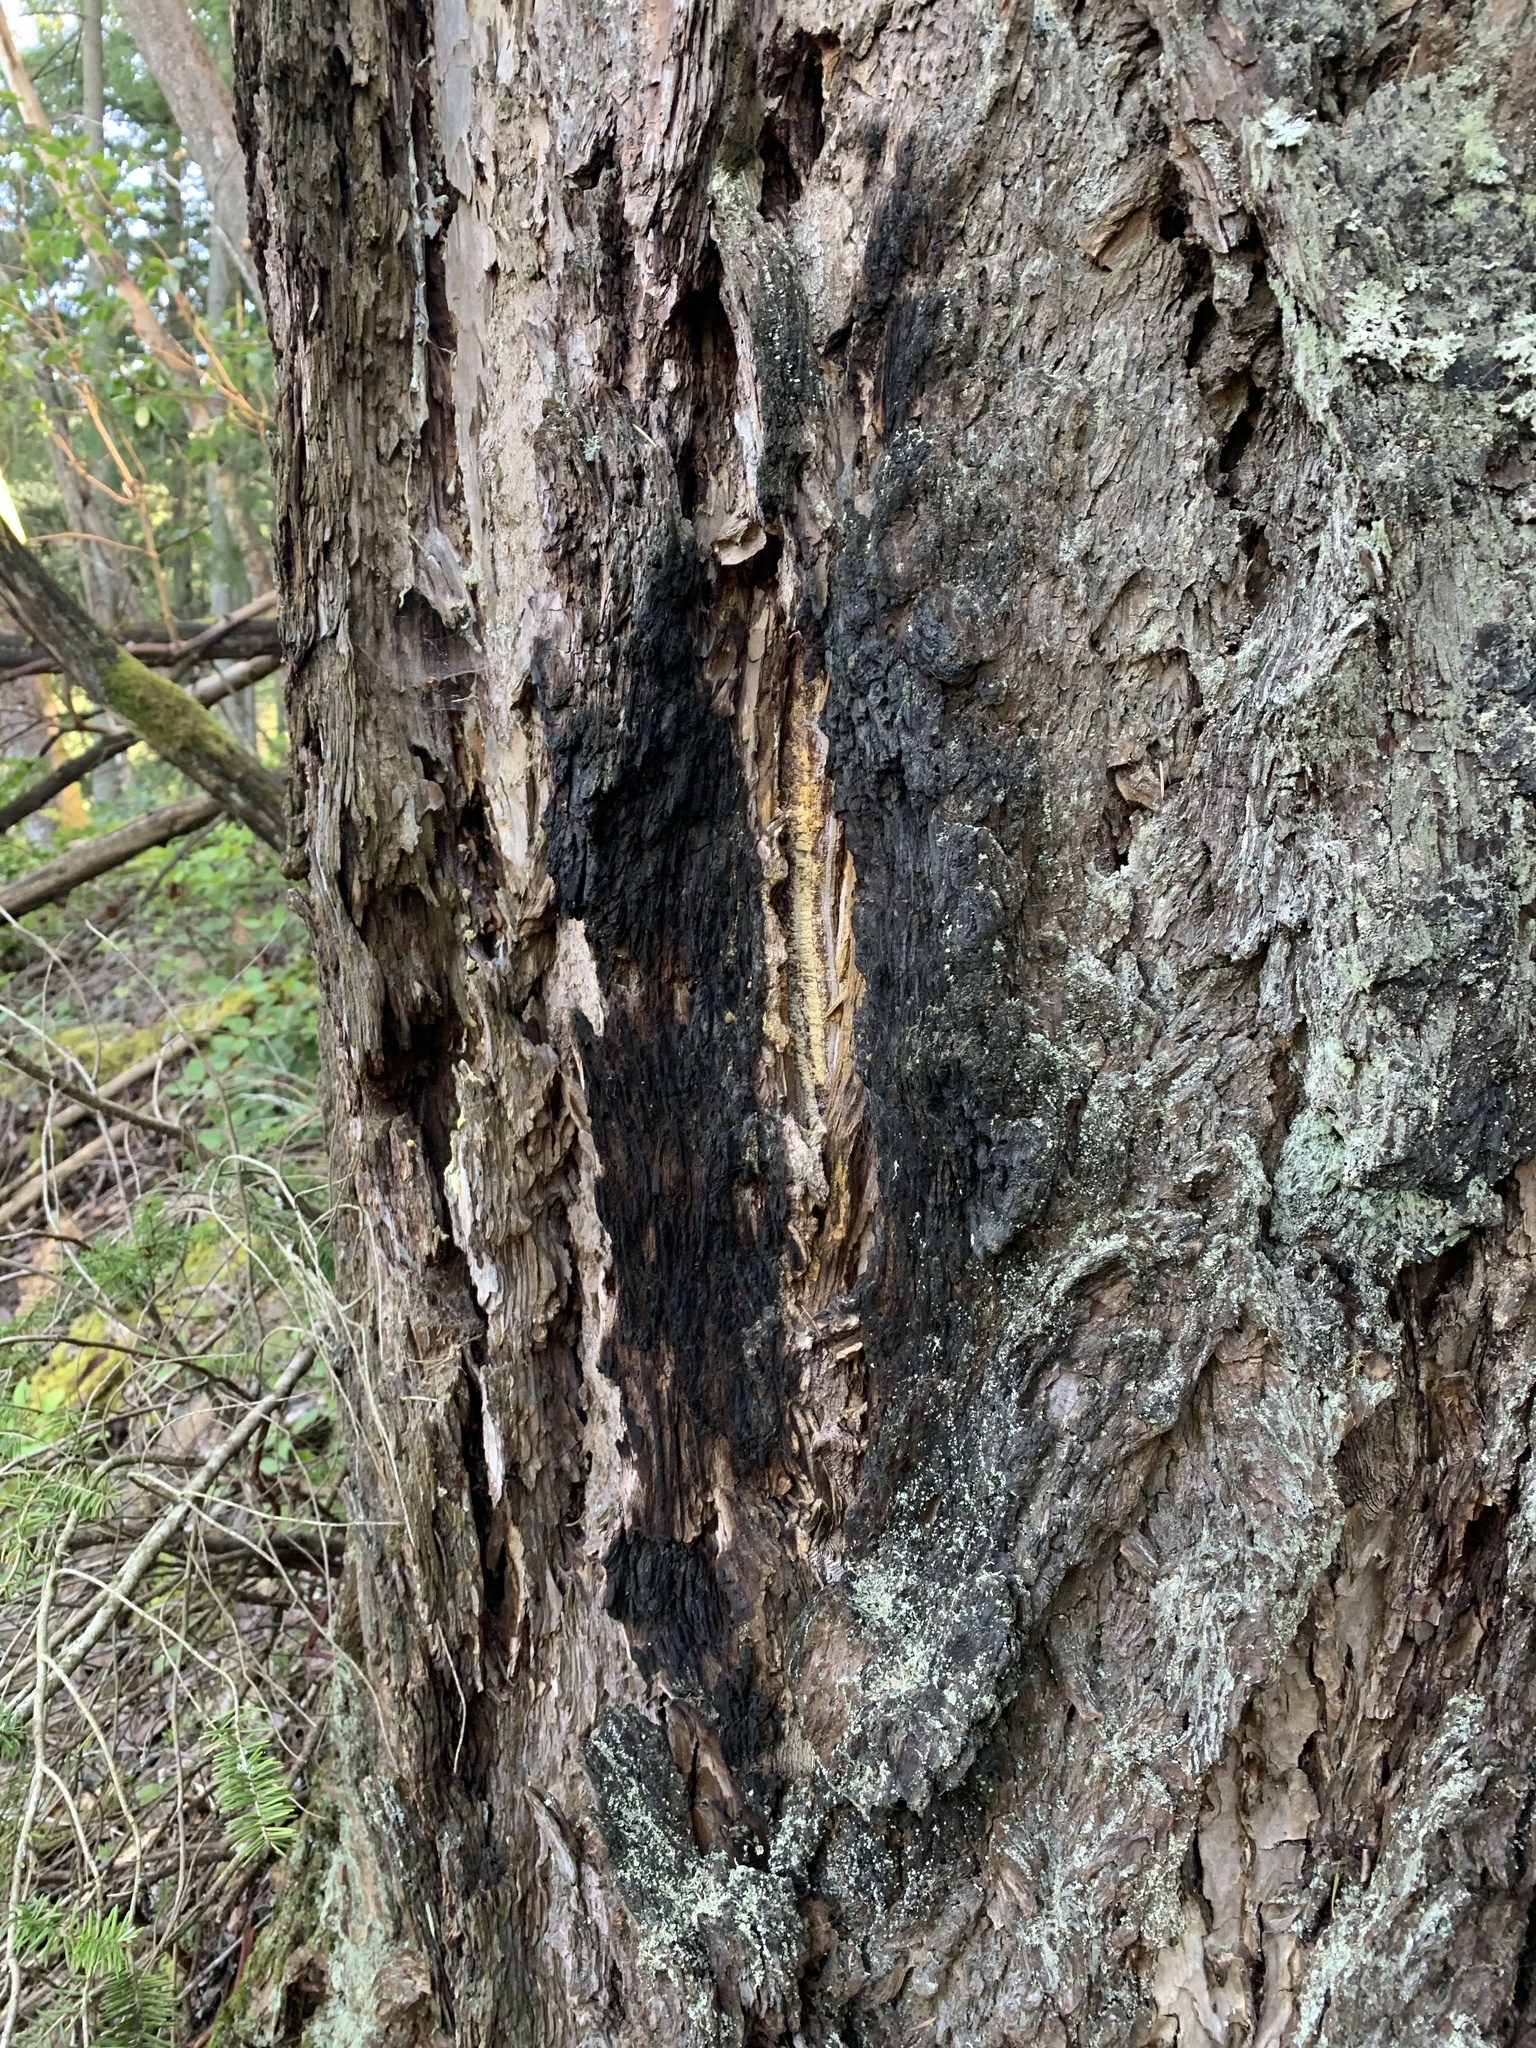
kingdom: Plantae
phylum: Tracheophyta
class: Pinopsida
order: Pinales
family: Pinaceae
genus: Pseudotsuga
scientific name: Pseudotsuga menziesii
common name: Douglas fir
